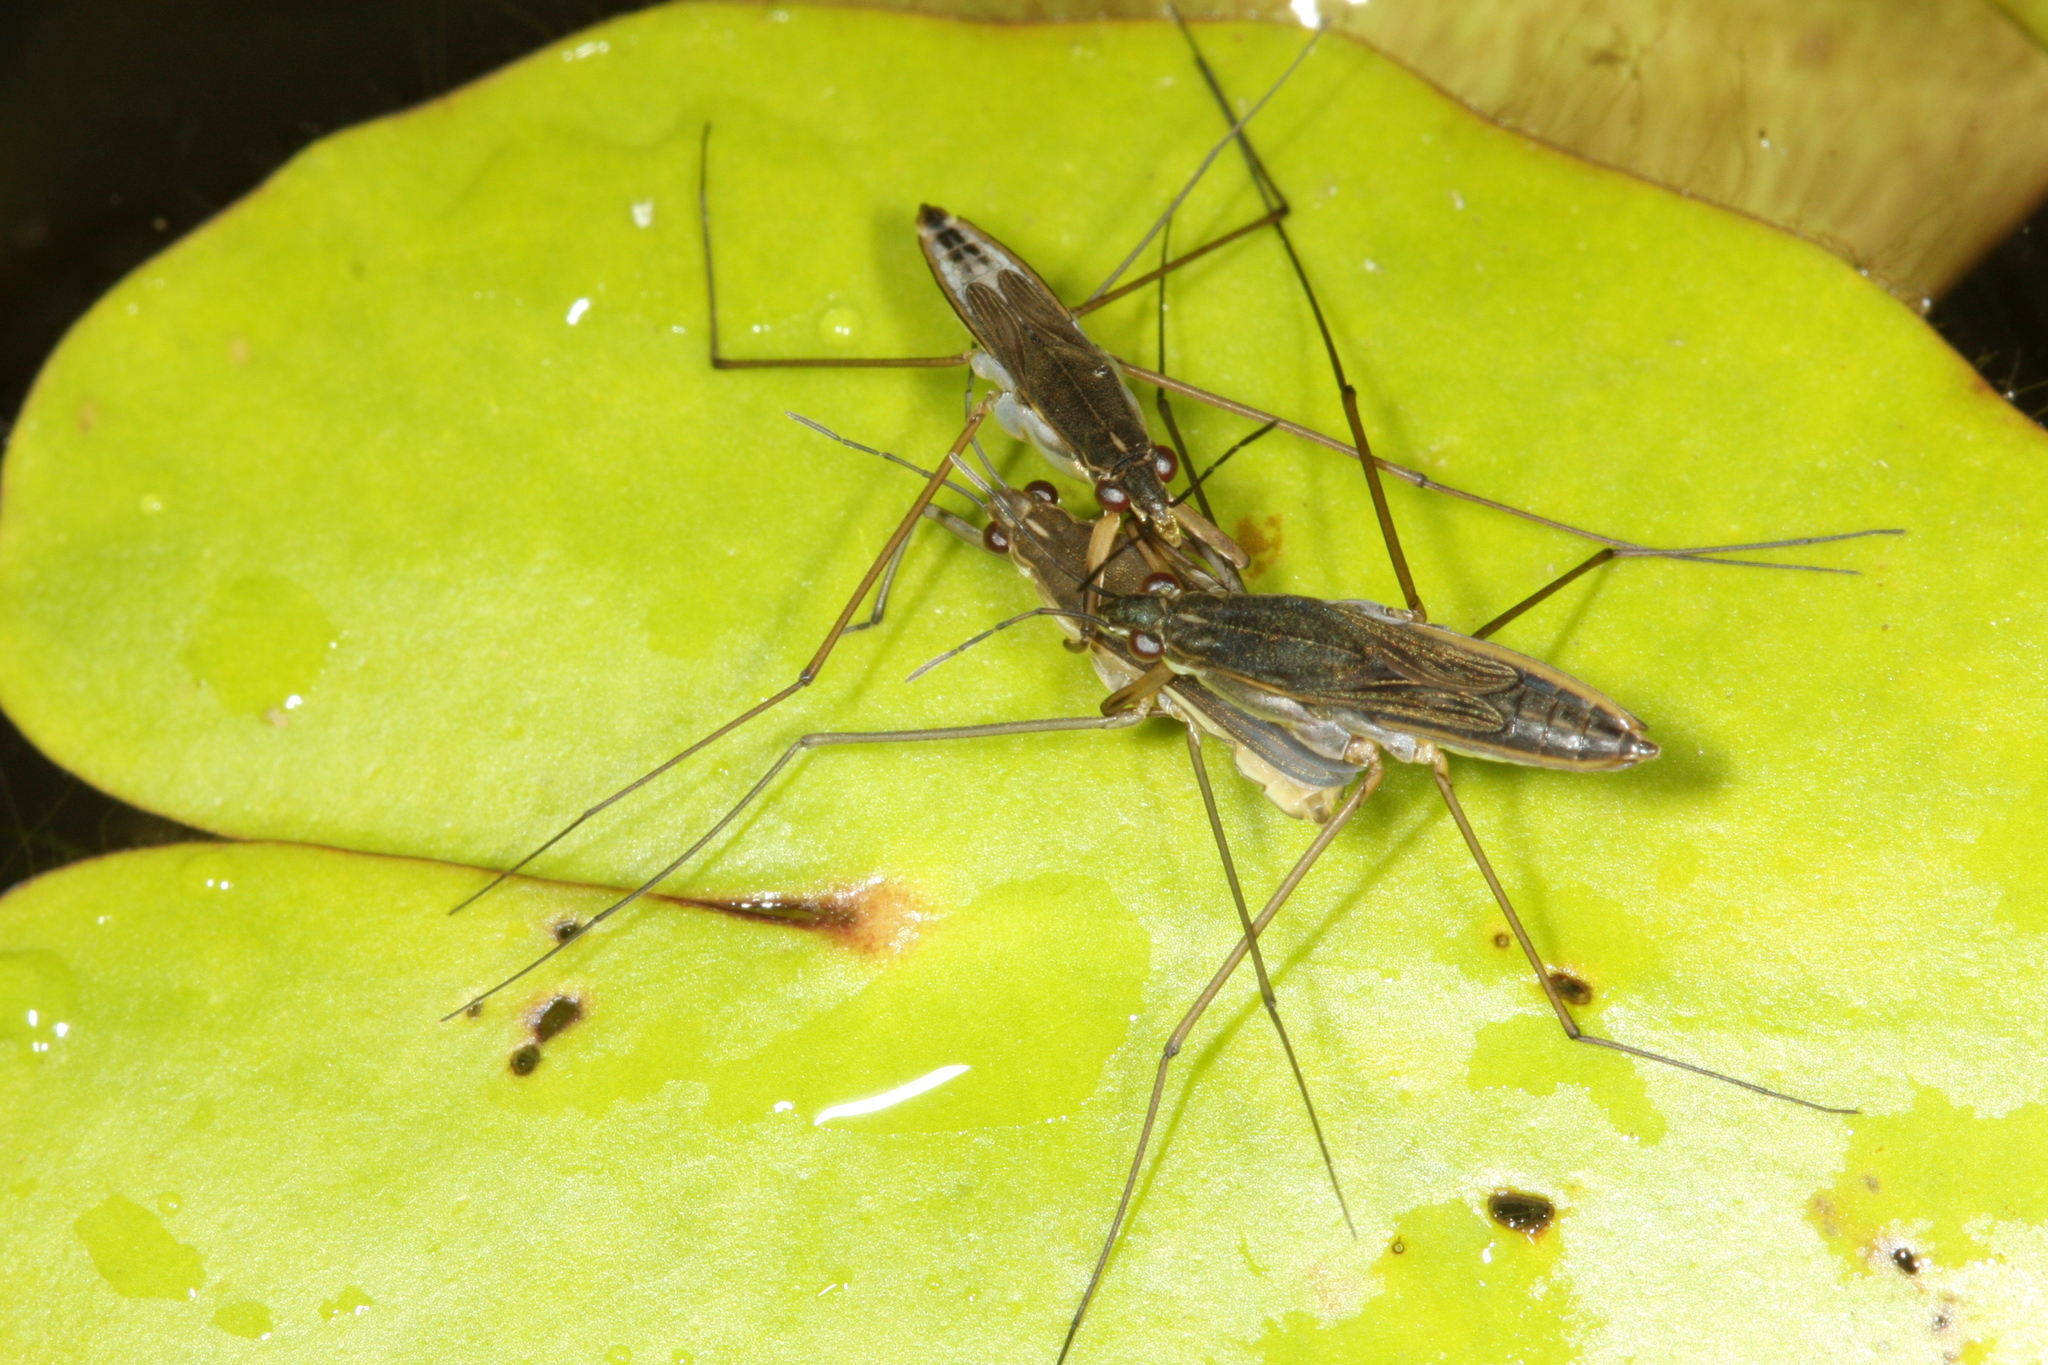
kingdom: Animalia
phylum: Arthropoda
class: Insecta
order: Hemiptera
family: Gerridae
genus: Gerris
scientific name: Gerris lacustris
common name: Common pondskater
